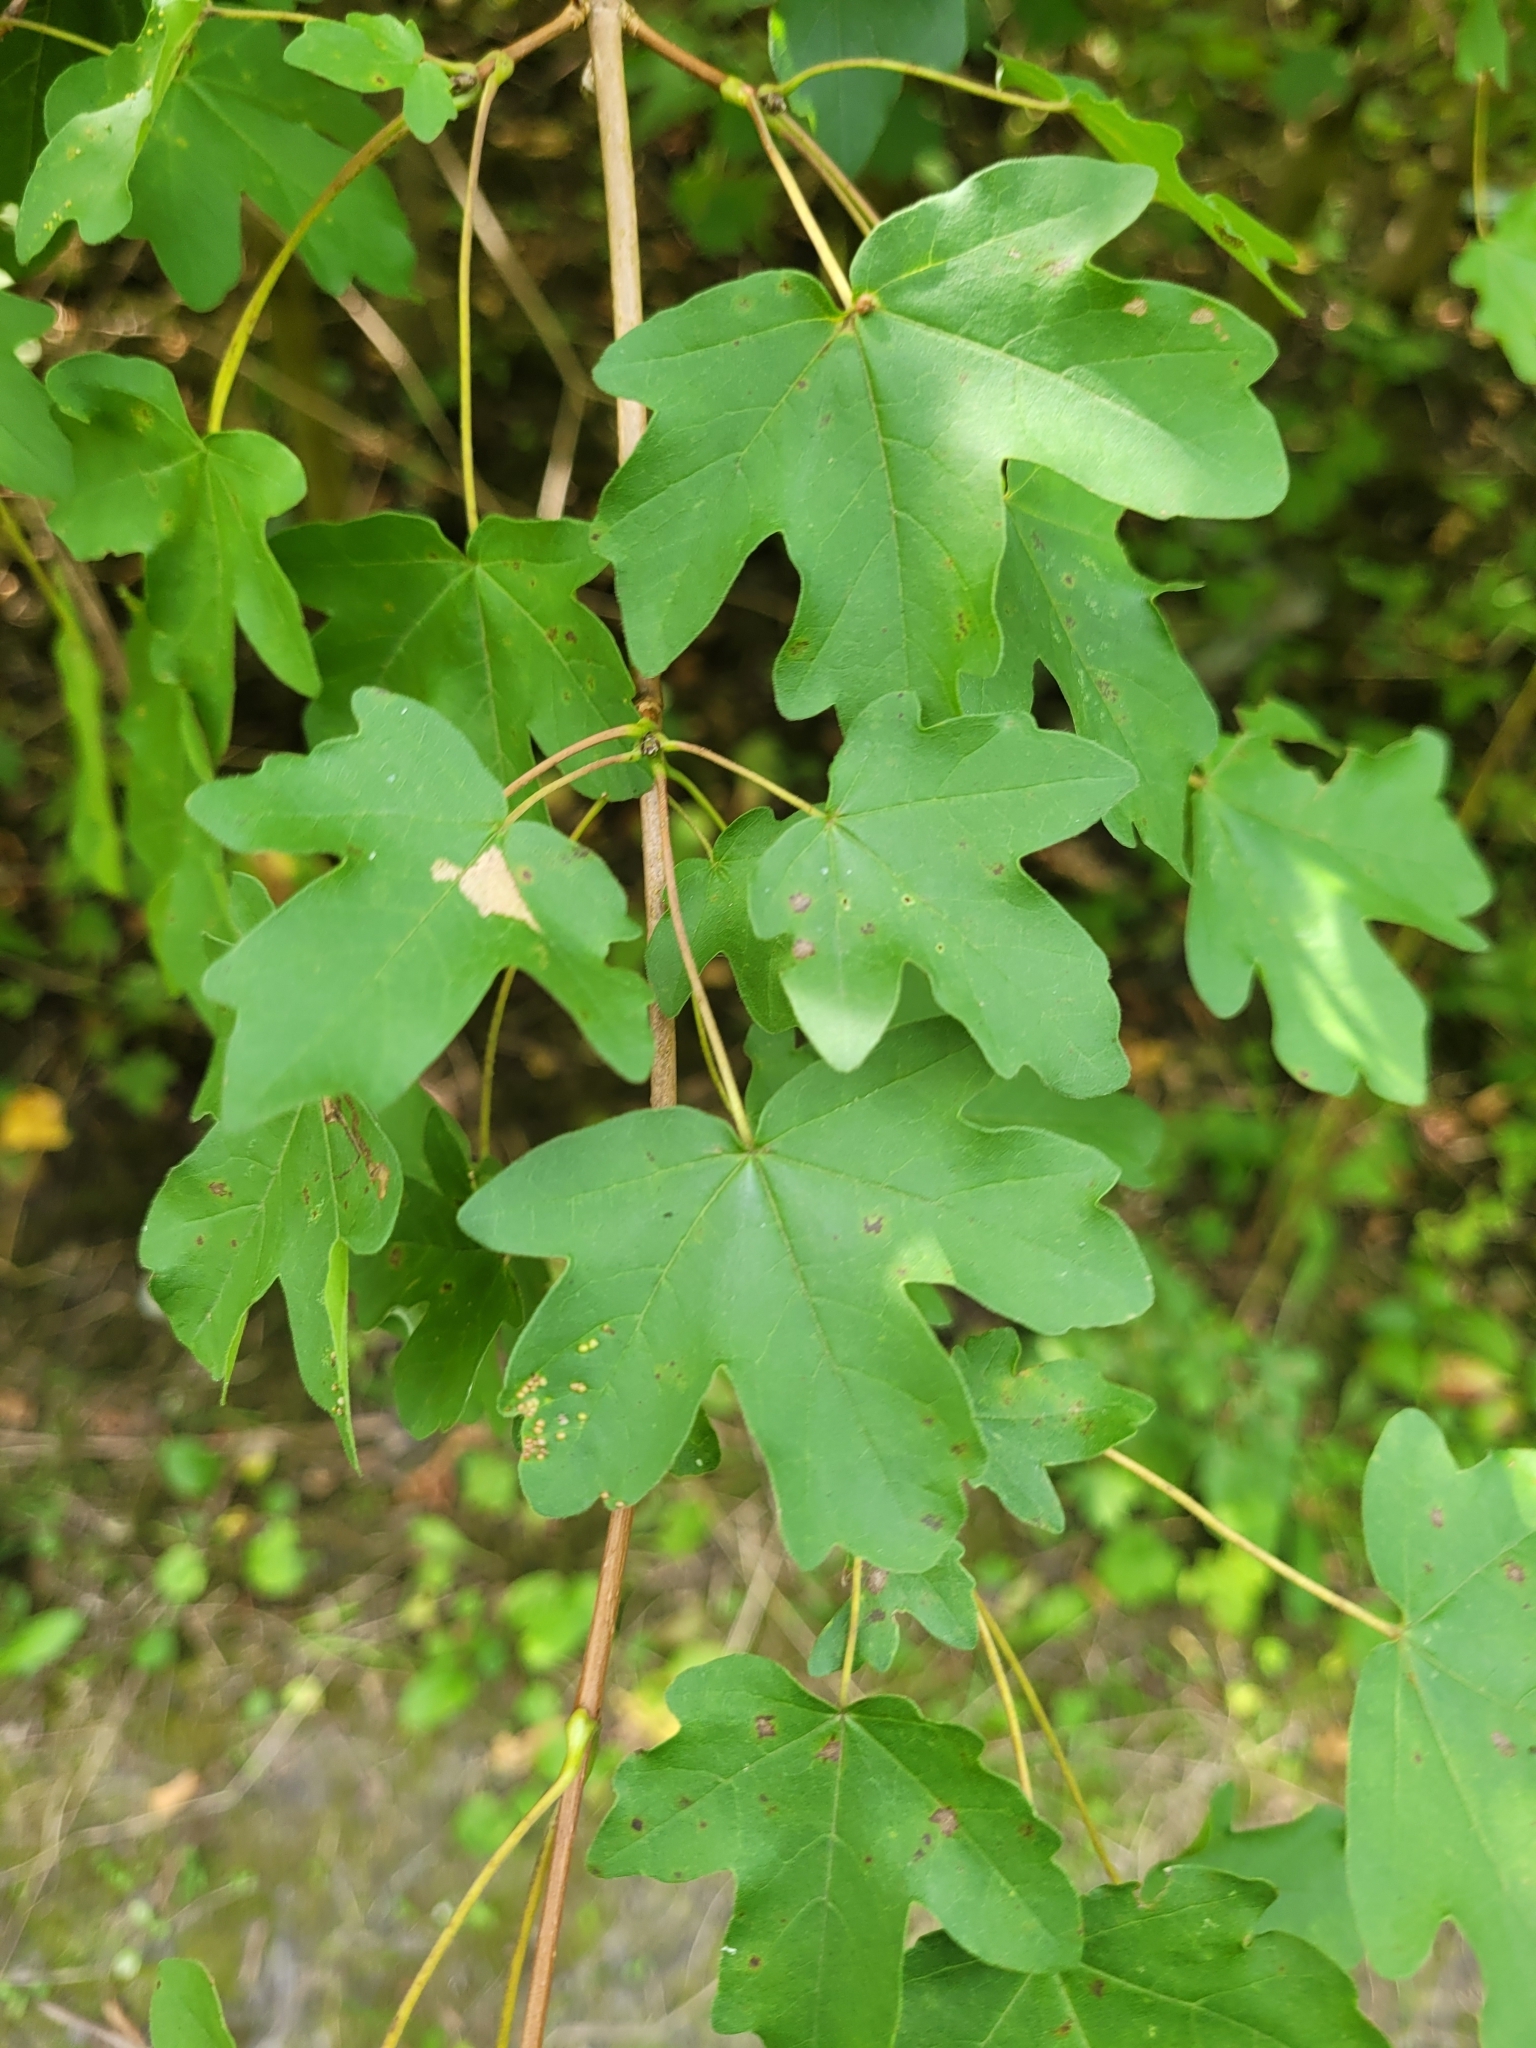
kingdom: Plantae
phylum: Tracheophyta
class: Magnoliopsida
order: Sapindales
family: Sapindaceae
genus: Acer
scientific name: Acer campestre
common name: Field maple
